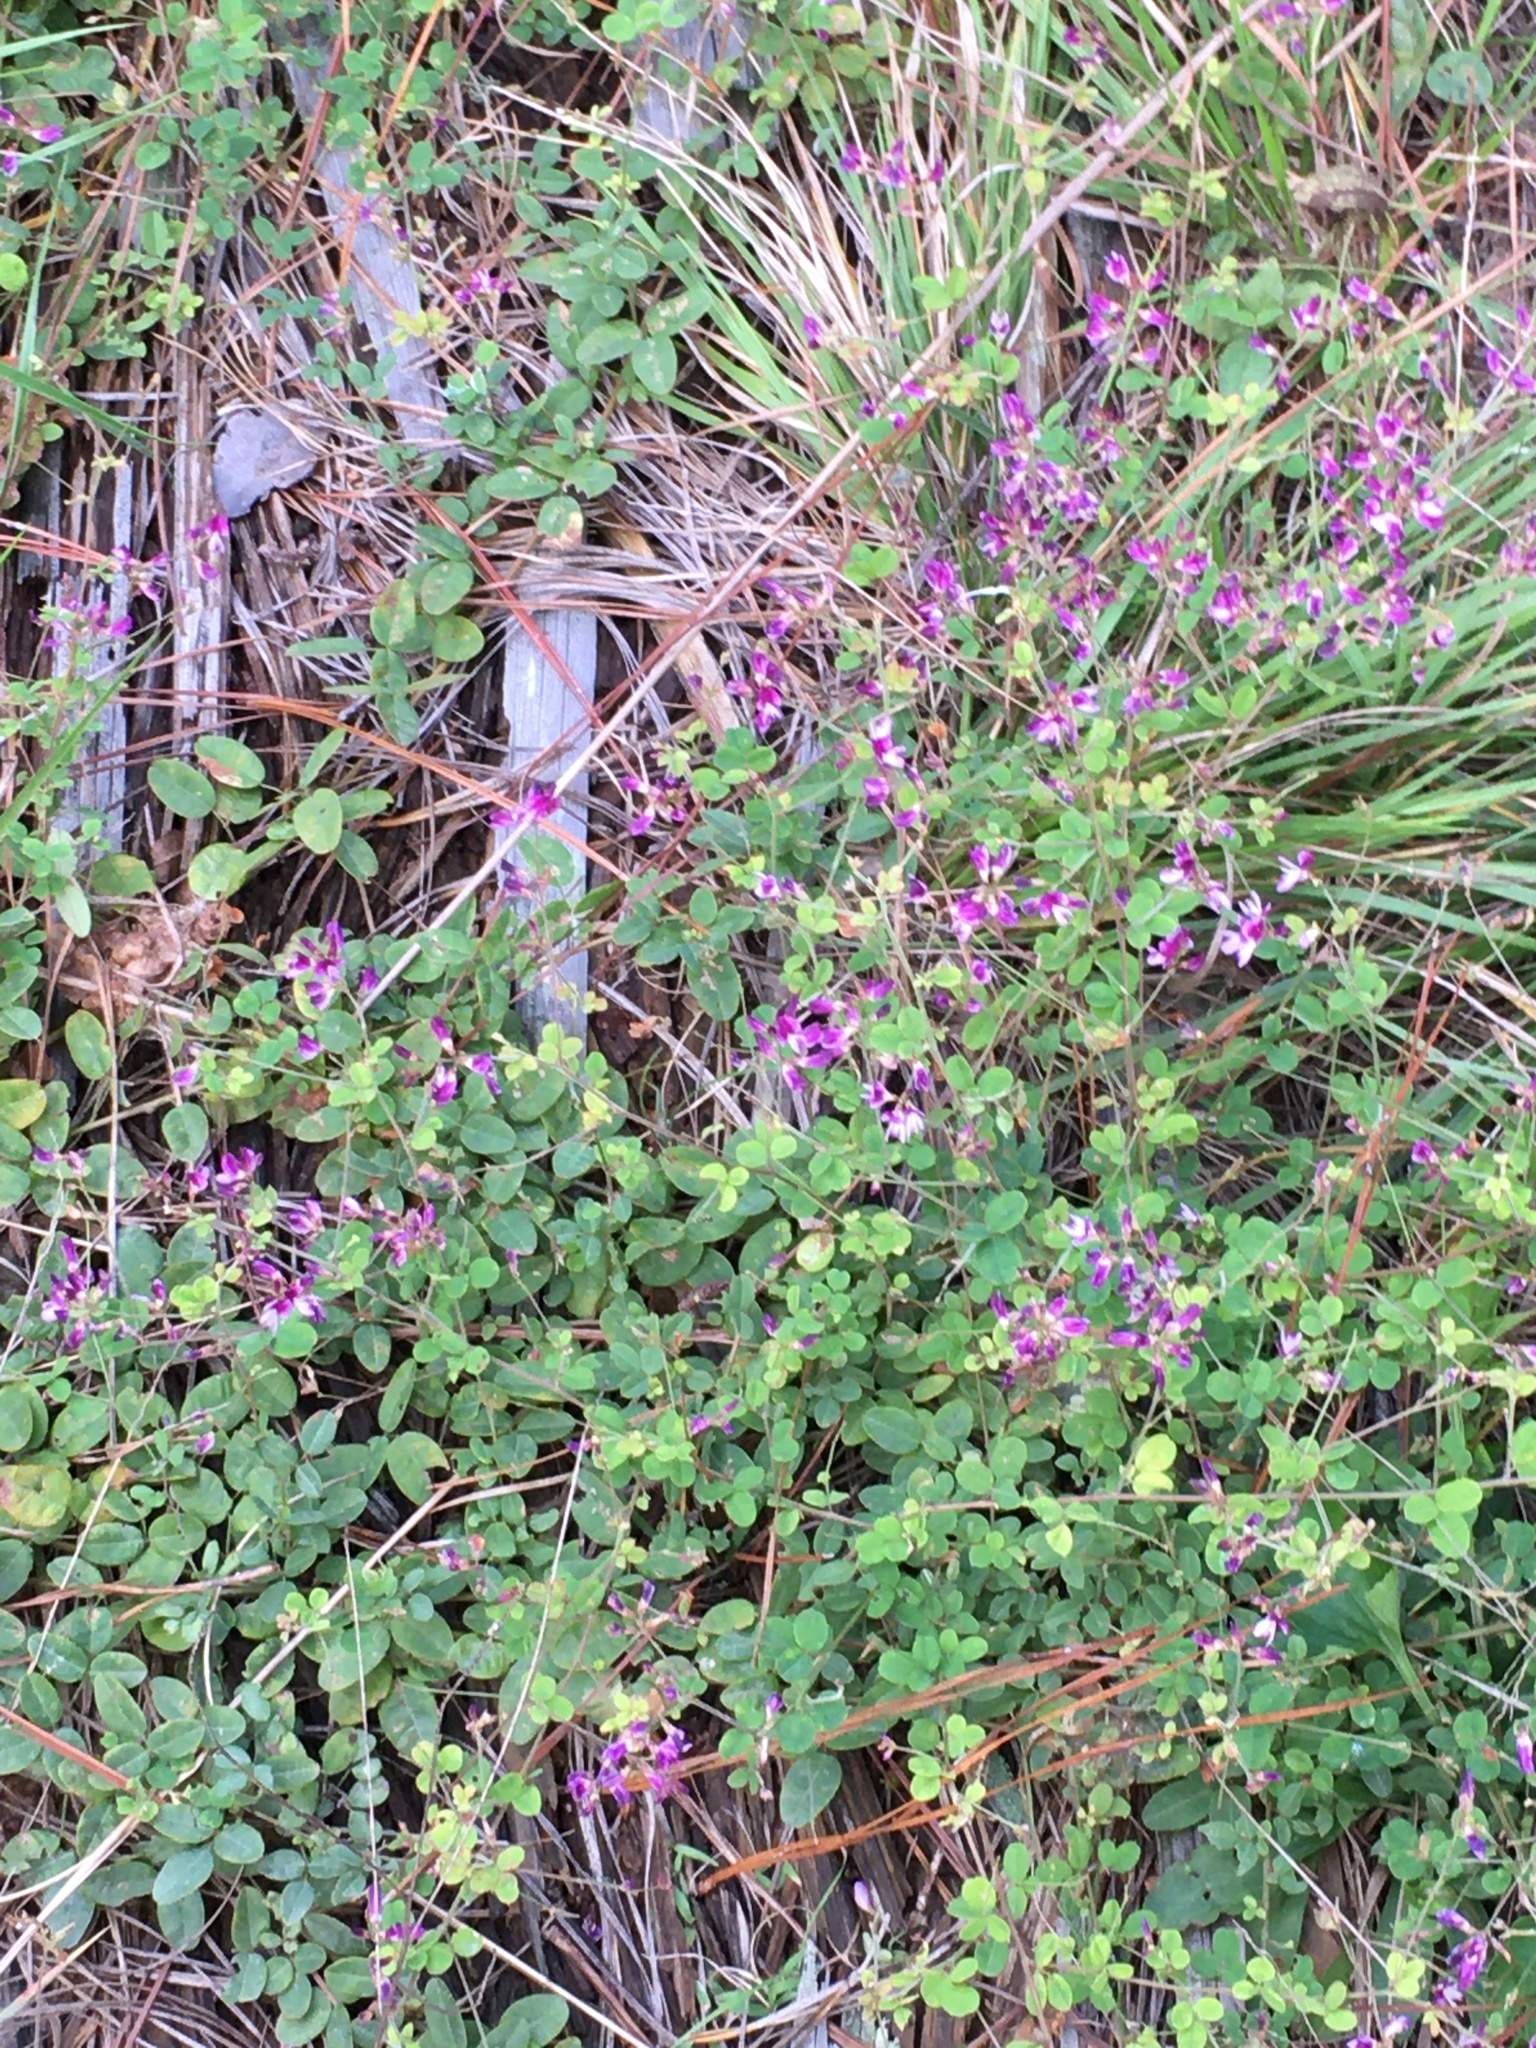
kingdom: Plantae
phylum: Tracheophyta
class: Magnoliopsida
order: Fabales
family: Fabaceae
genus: Lespedeza
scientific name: Lespedeza procumbens
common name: Downy trailing bush-clover
